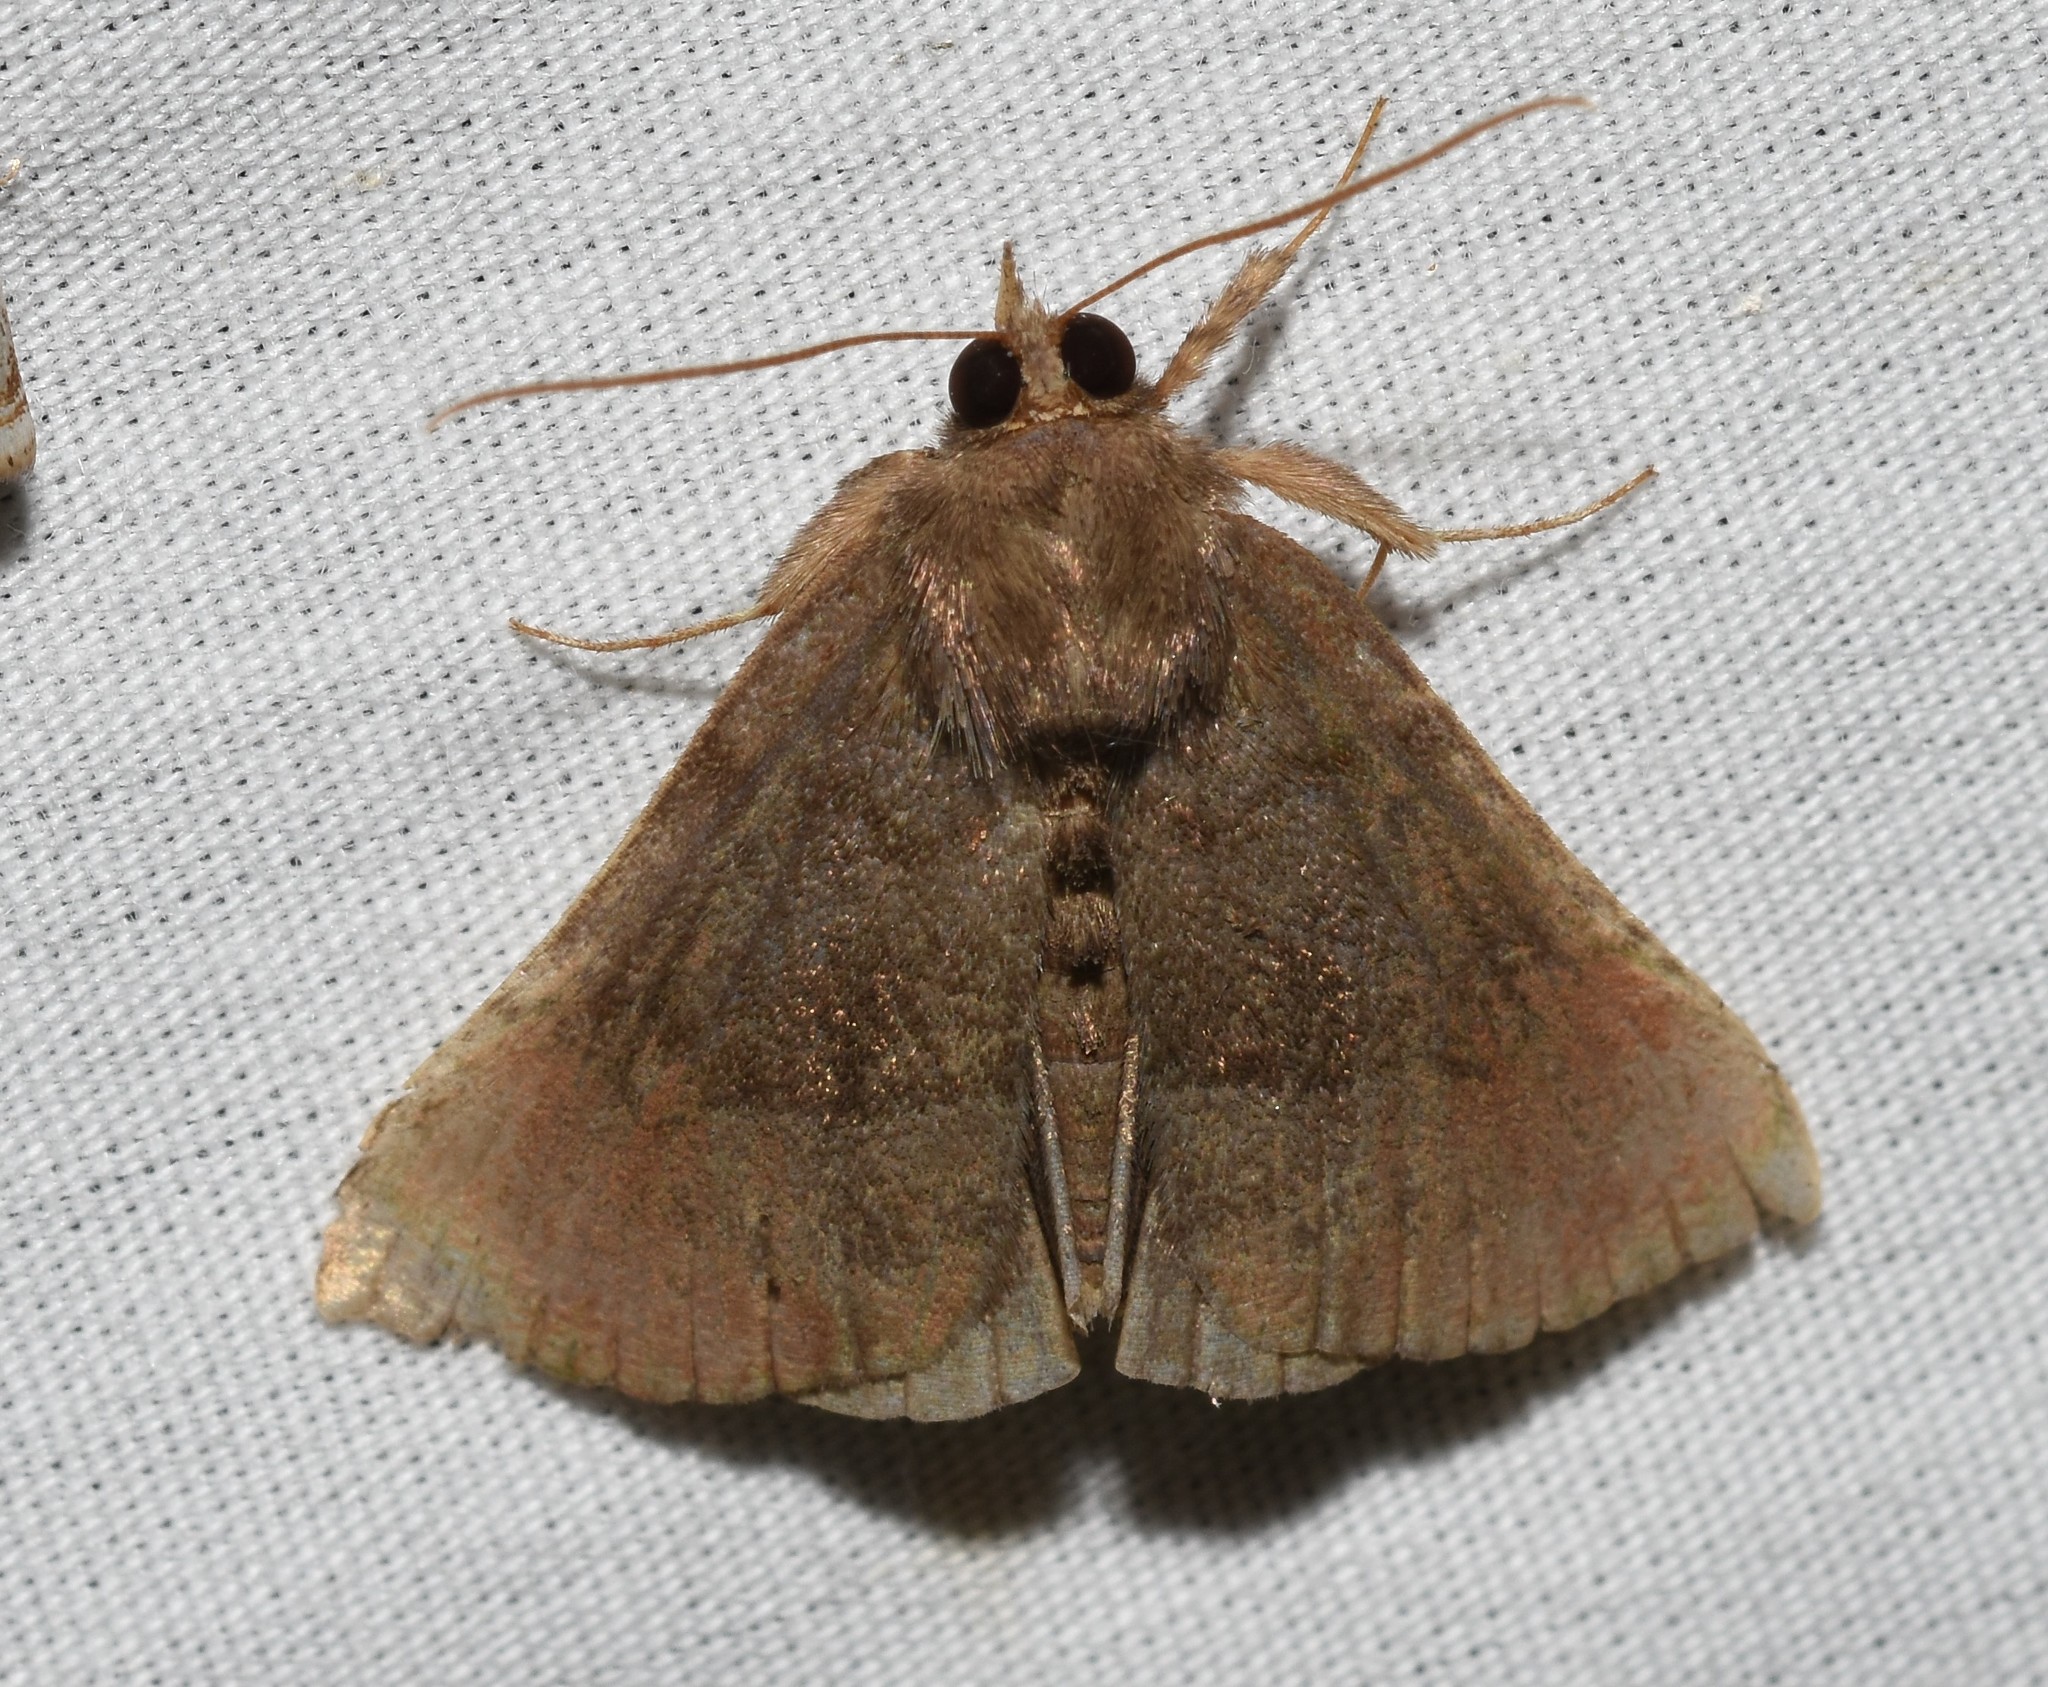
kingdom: Animalia
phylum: Arthropoda
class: Insecta
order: Lepidoptera
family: Erebidae
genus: Hypena
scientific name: Hypena madefactalis
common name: Gray-edged snout
